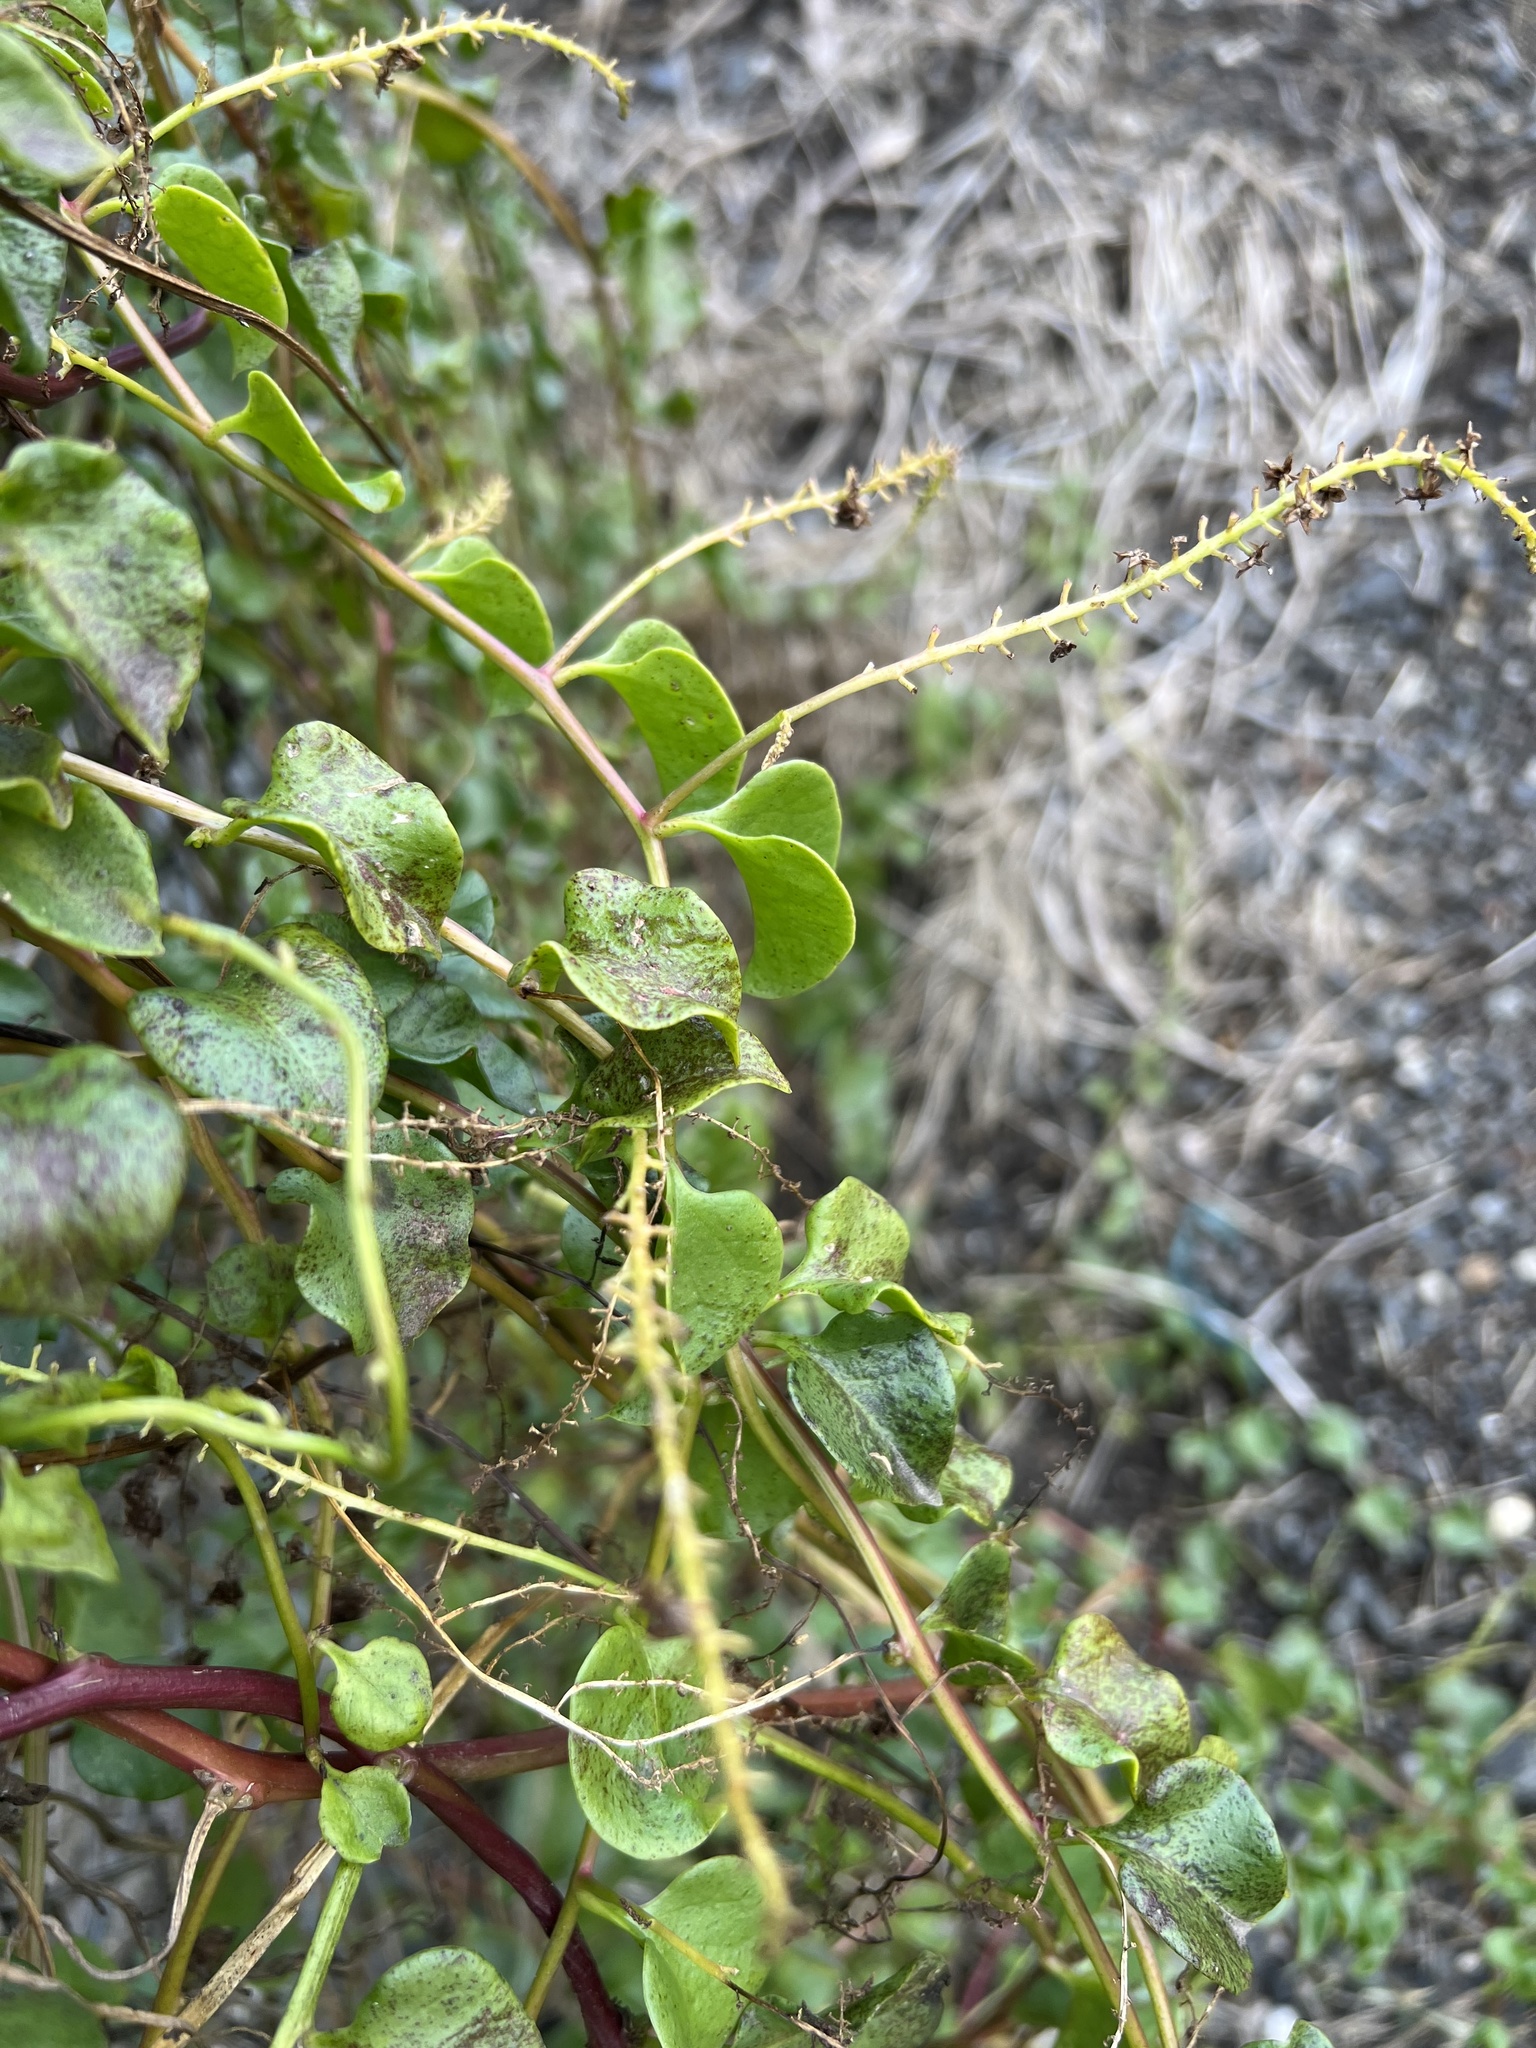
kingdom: Plantae
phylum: Tracheophyta
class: Magnoliopsida
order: Caryophyllales
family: Basellaceae
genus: Anredera
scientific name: Anredera cordifolia
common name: Heartleaf madeiravine
